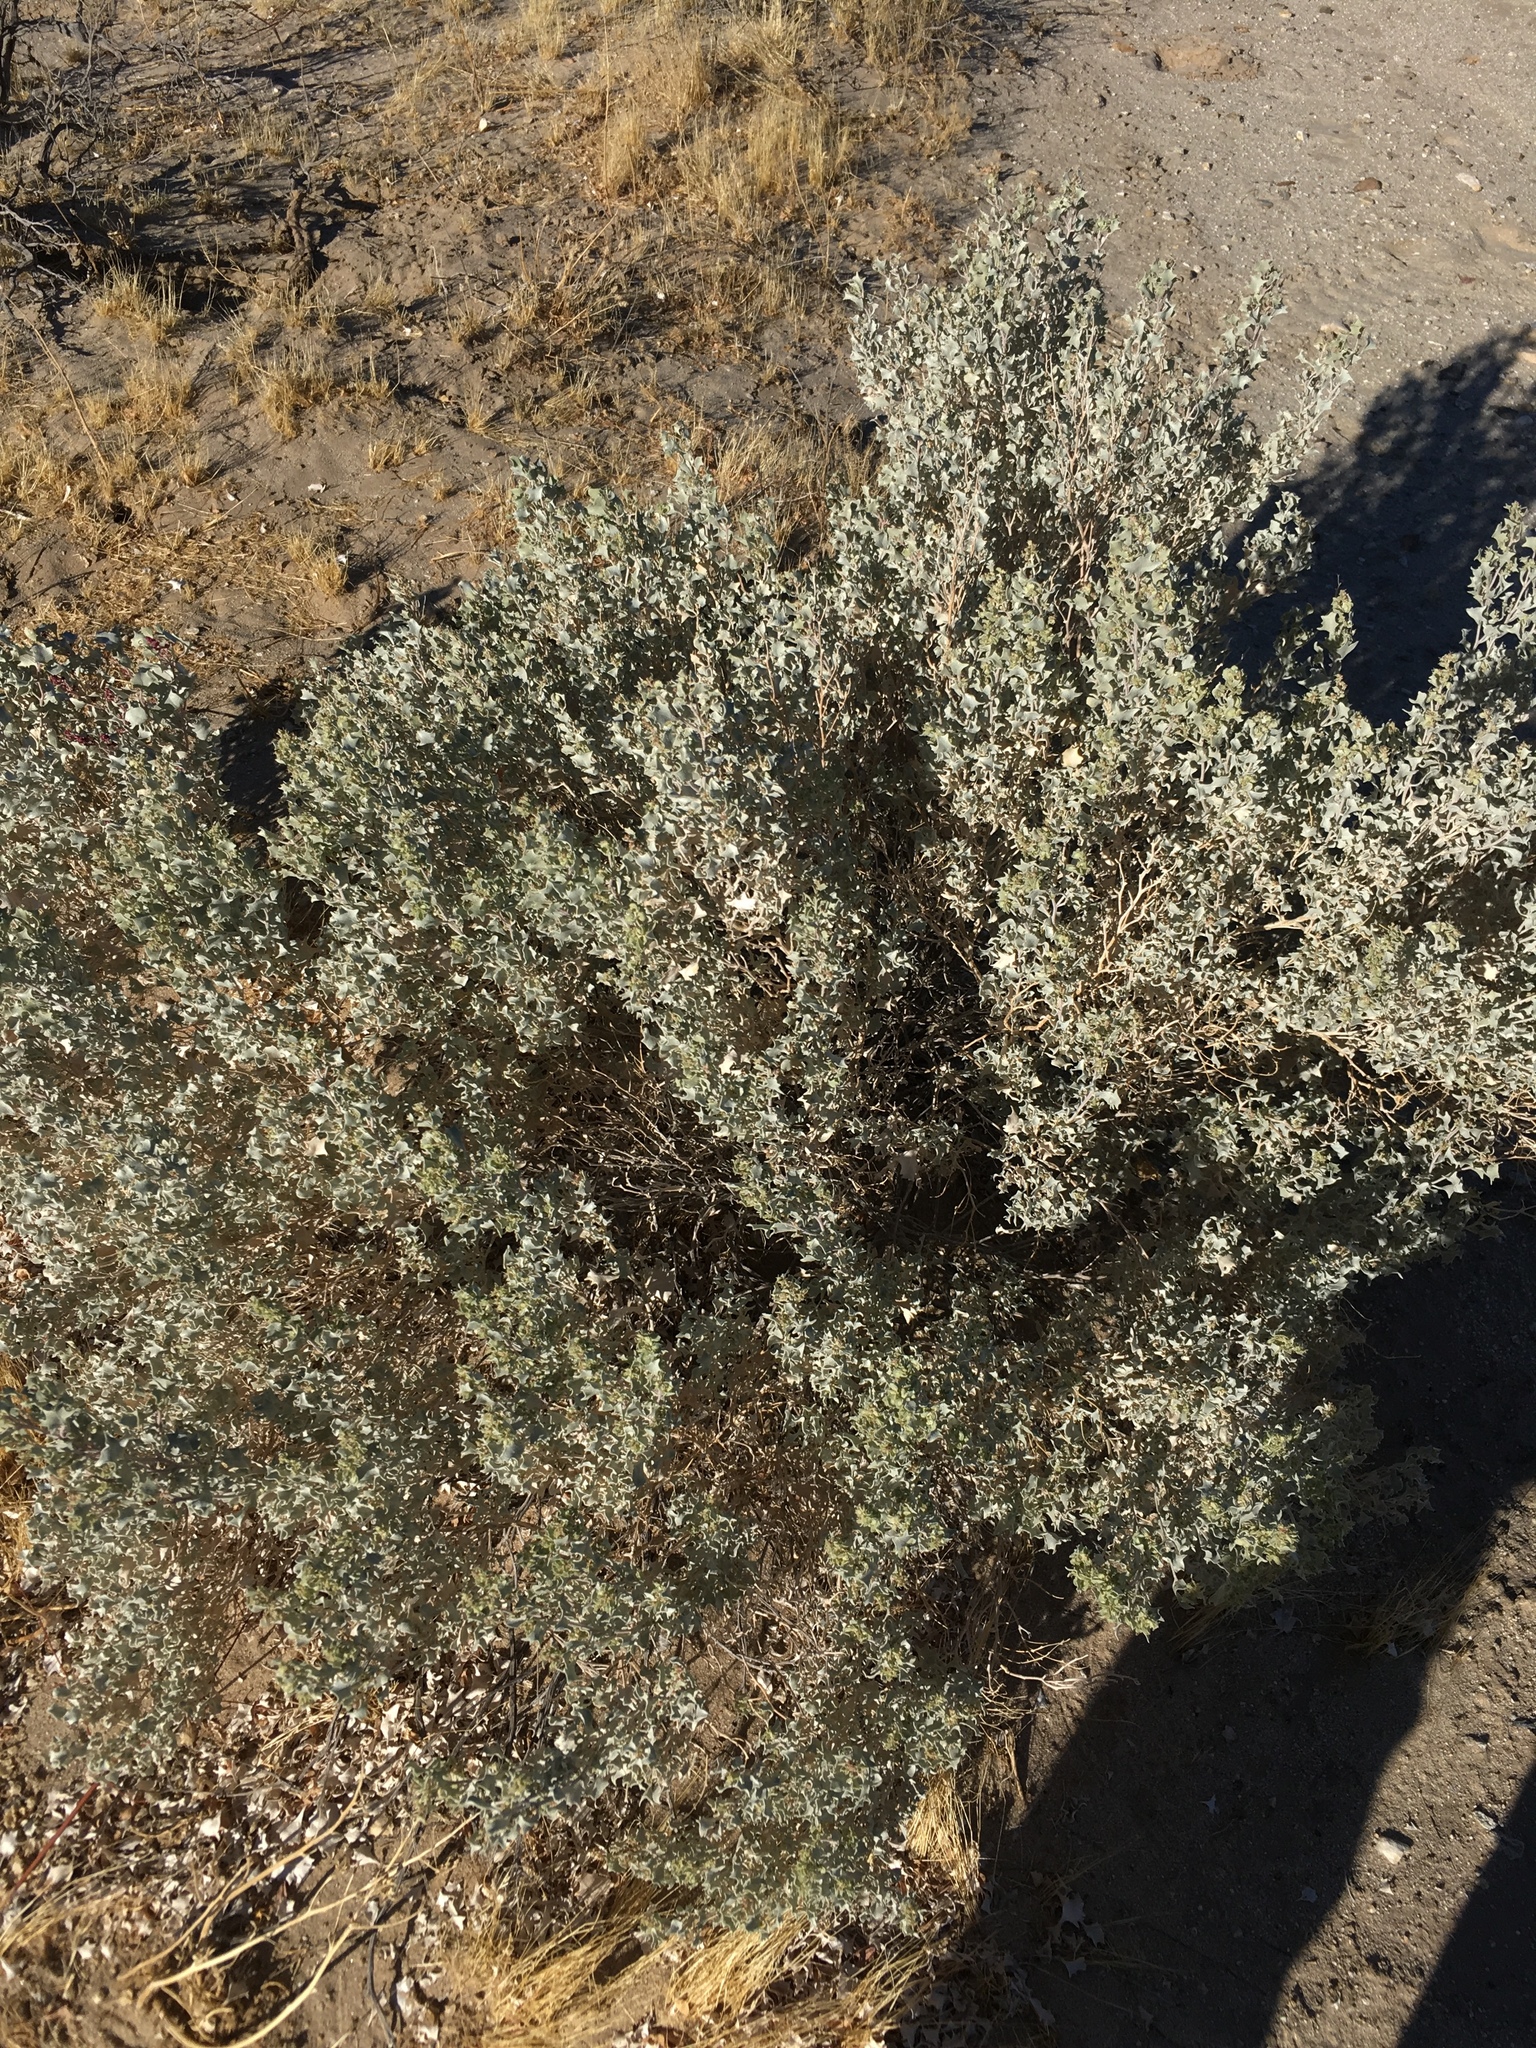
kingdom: Plantae
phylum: Tracheophyta
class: Magnoliopsida
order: Caryophyllales
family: Amaranthaceae
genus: Atriplex
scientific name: Atriplex hymenelytra
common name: Desert-holly
